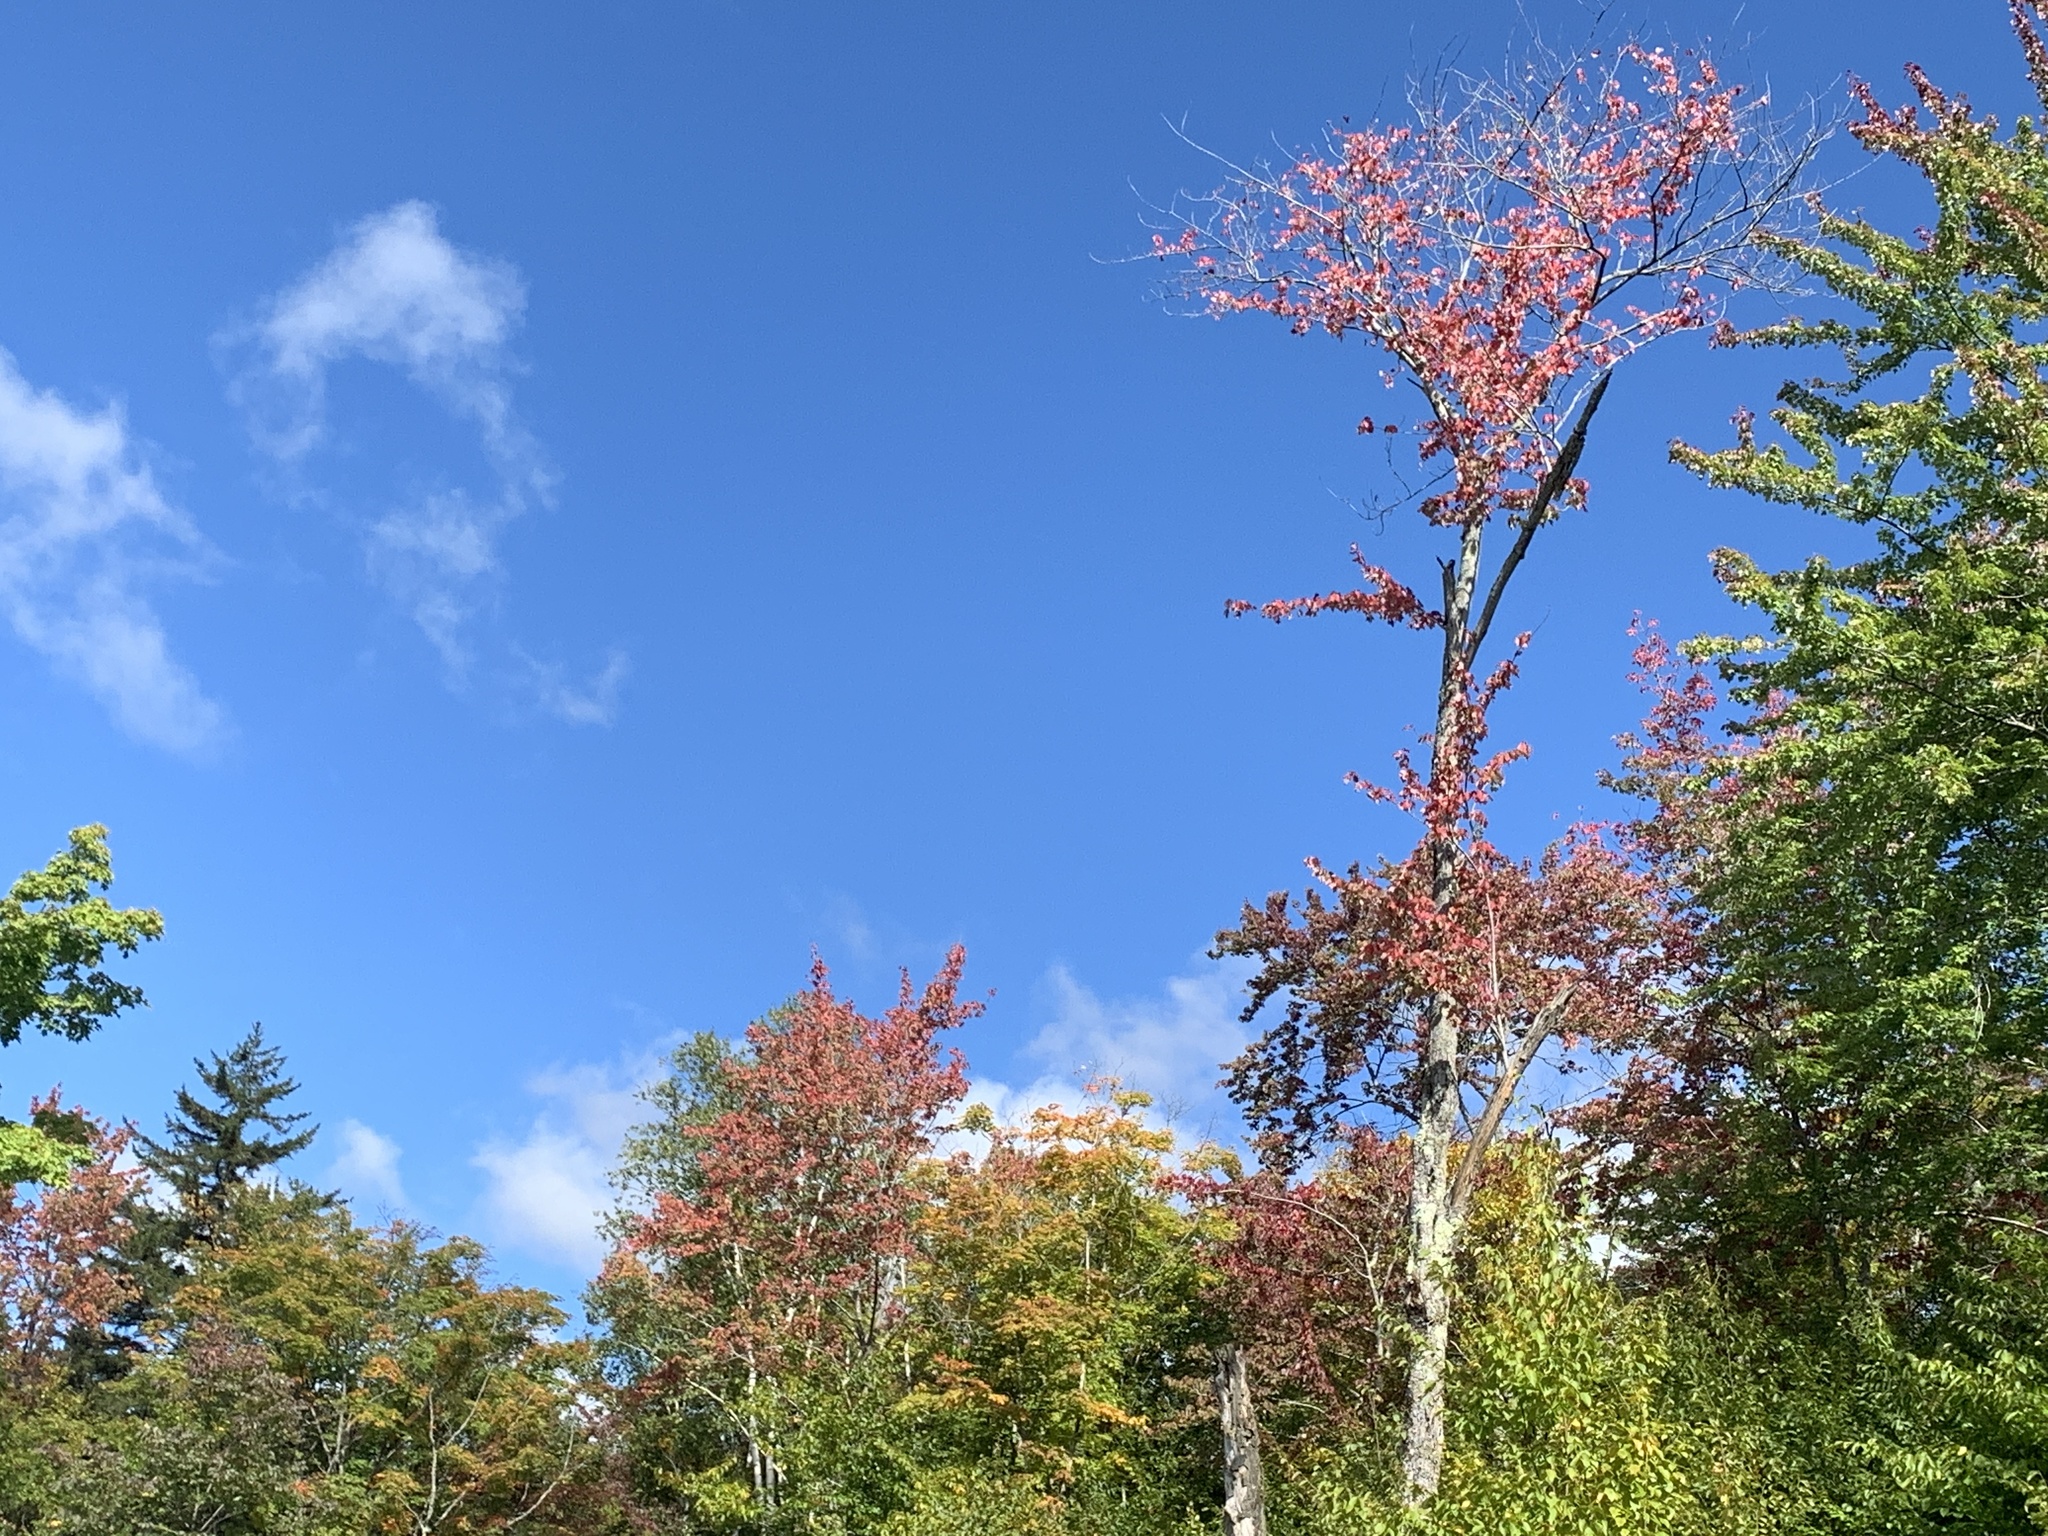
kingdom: Plantae
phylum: Tracheophyta
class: Magnoliopsida
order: Sapindales
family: Sapindaceae
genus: Acer
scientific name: Acer rubrum
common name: Red maple
